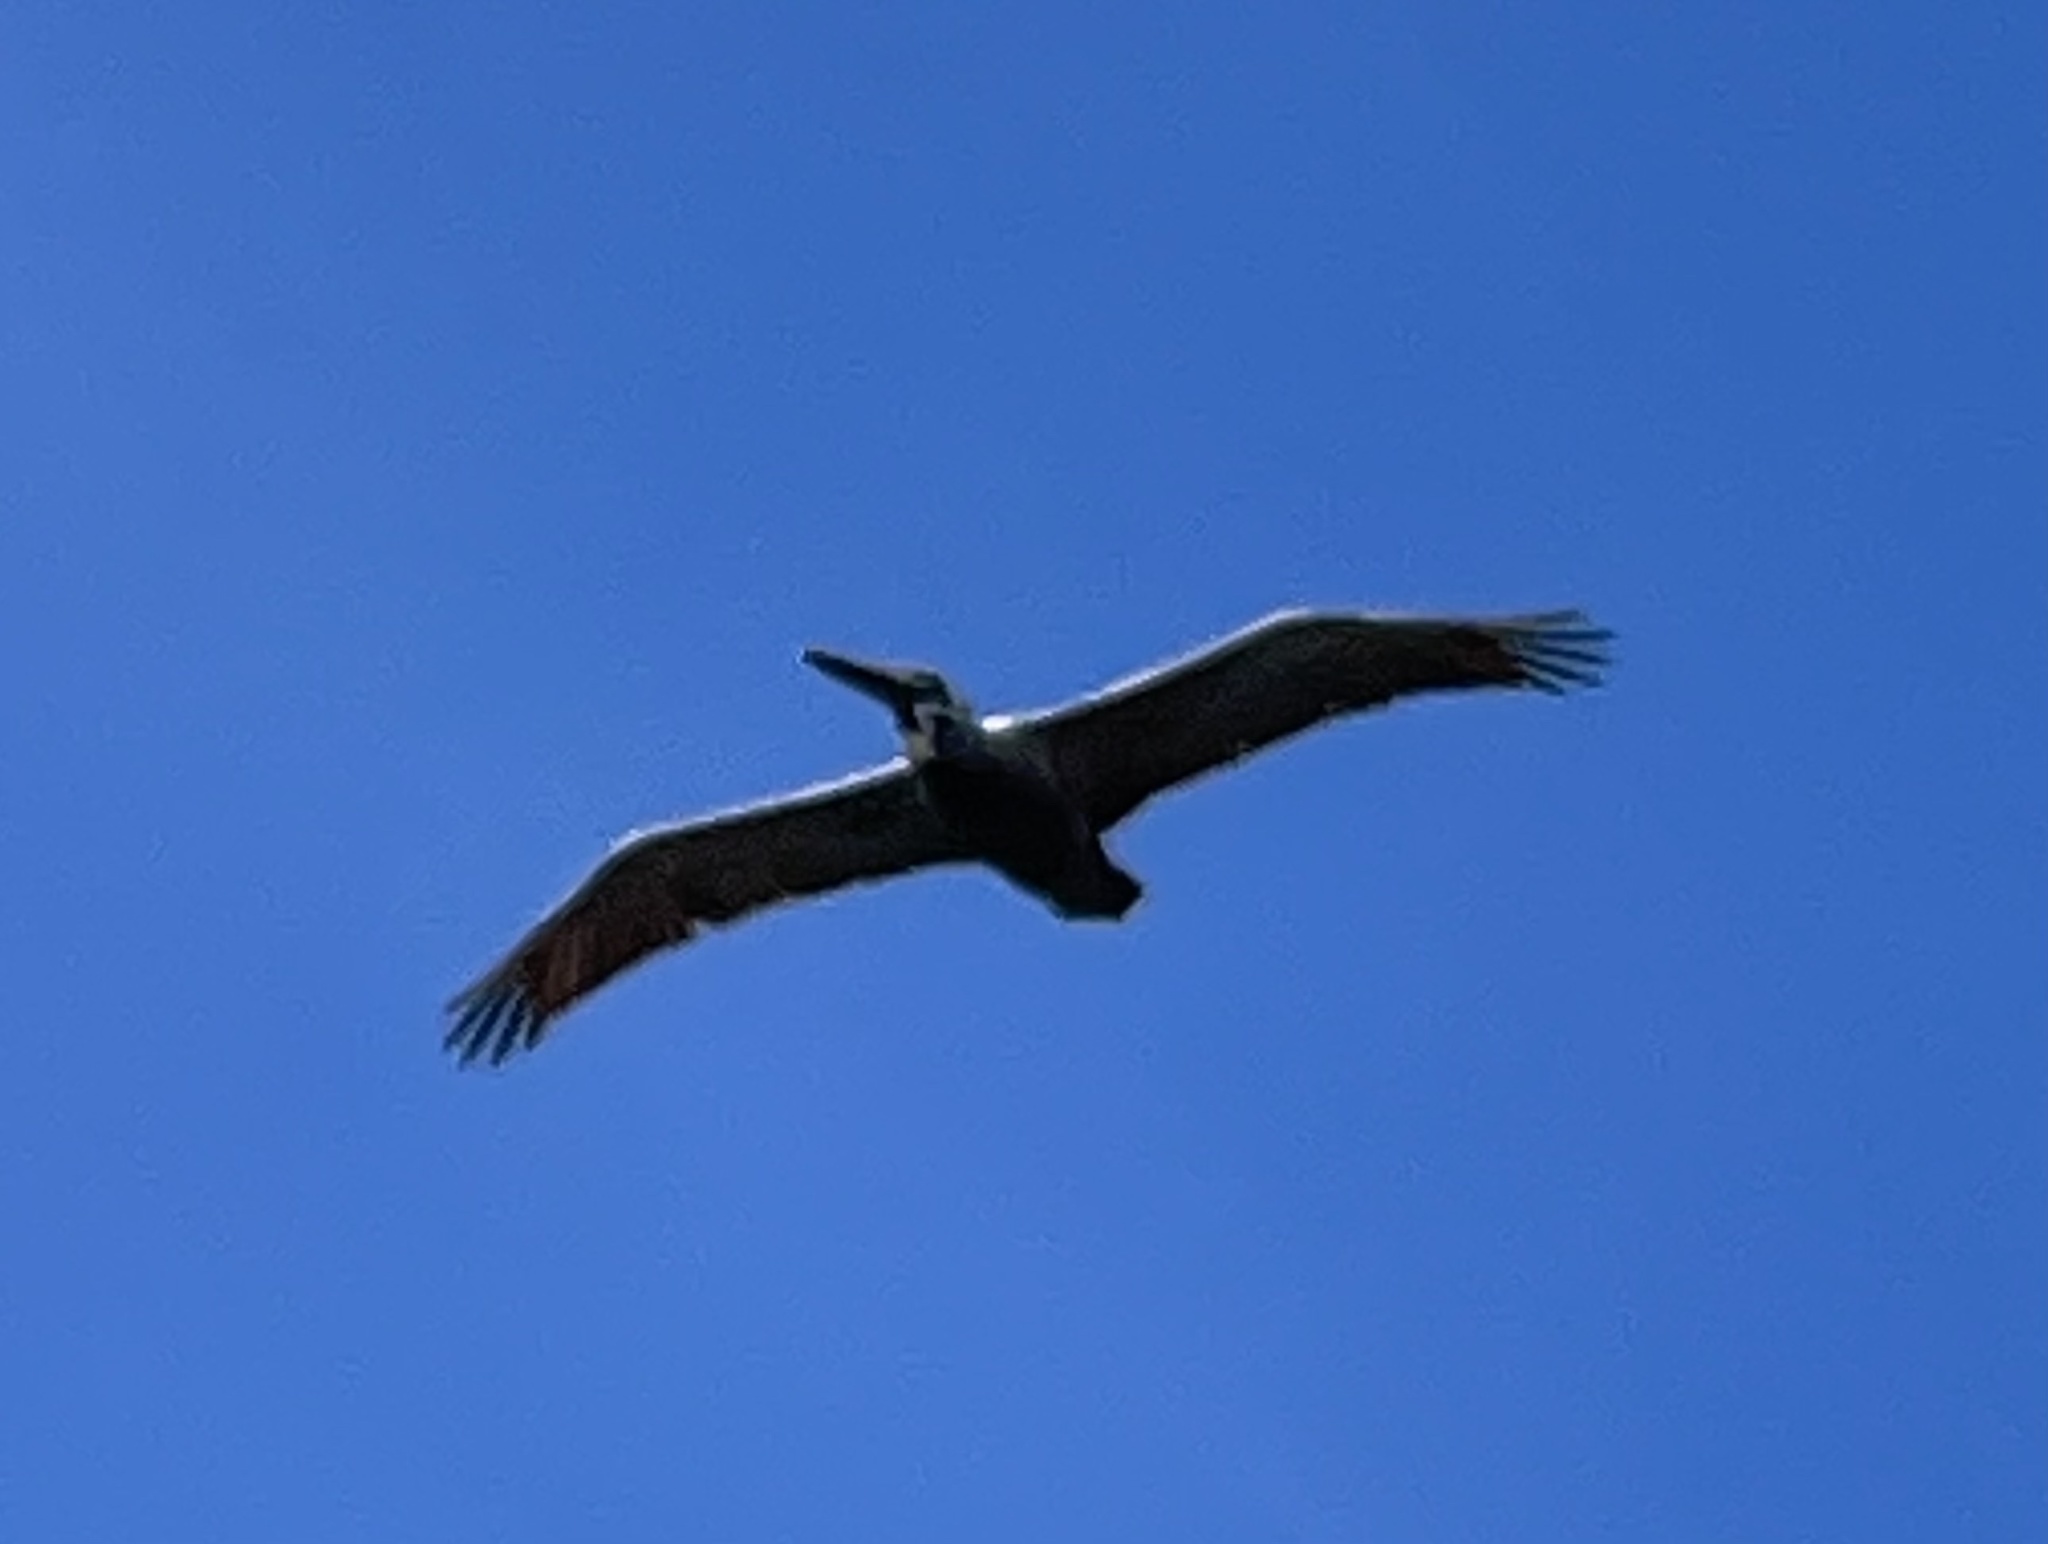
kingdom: Animalia
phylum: Chordata
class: Aves
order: Pelecaniformes
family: Pelecanidae
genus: Pelecanus
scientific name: Pelecanus occidentalis
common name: Brown pelican
